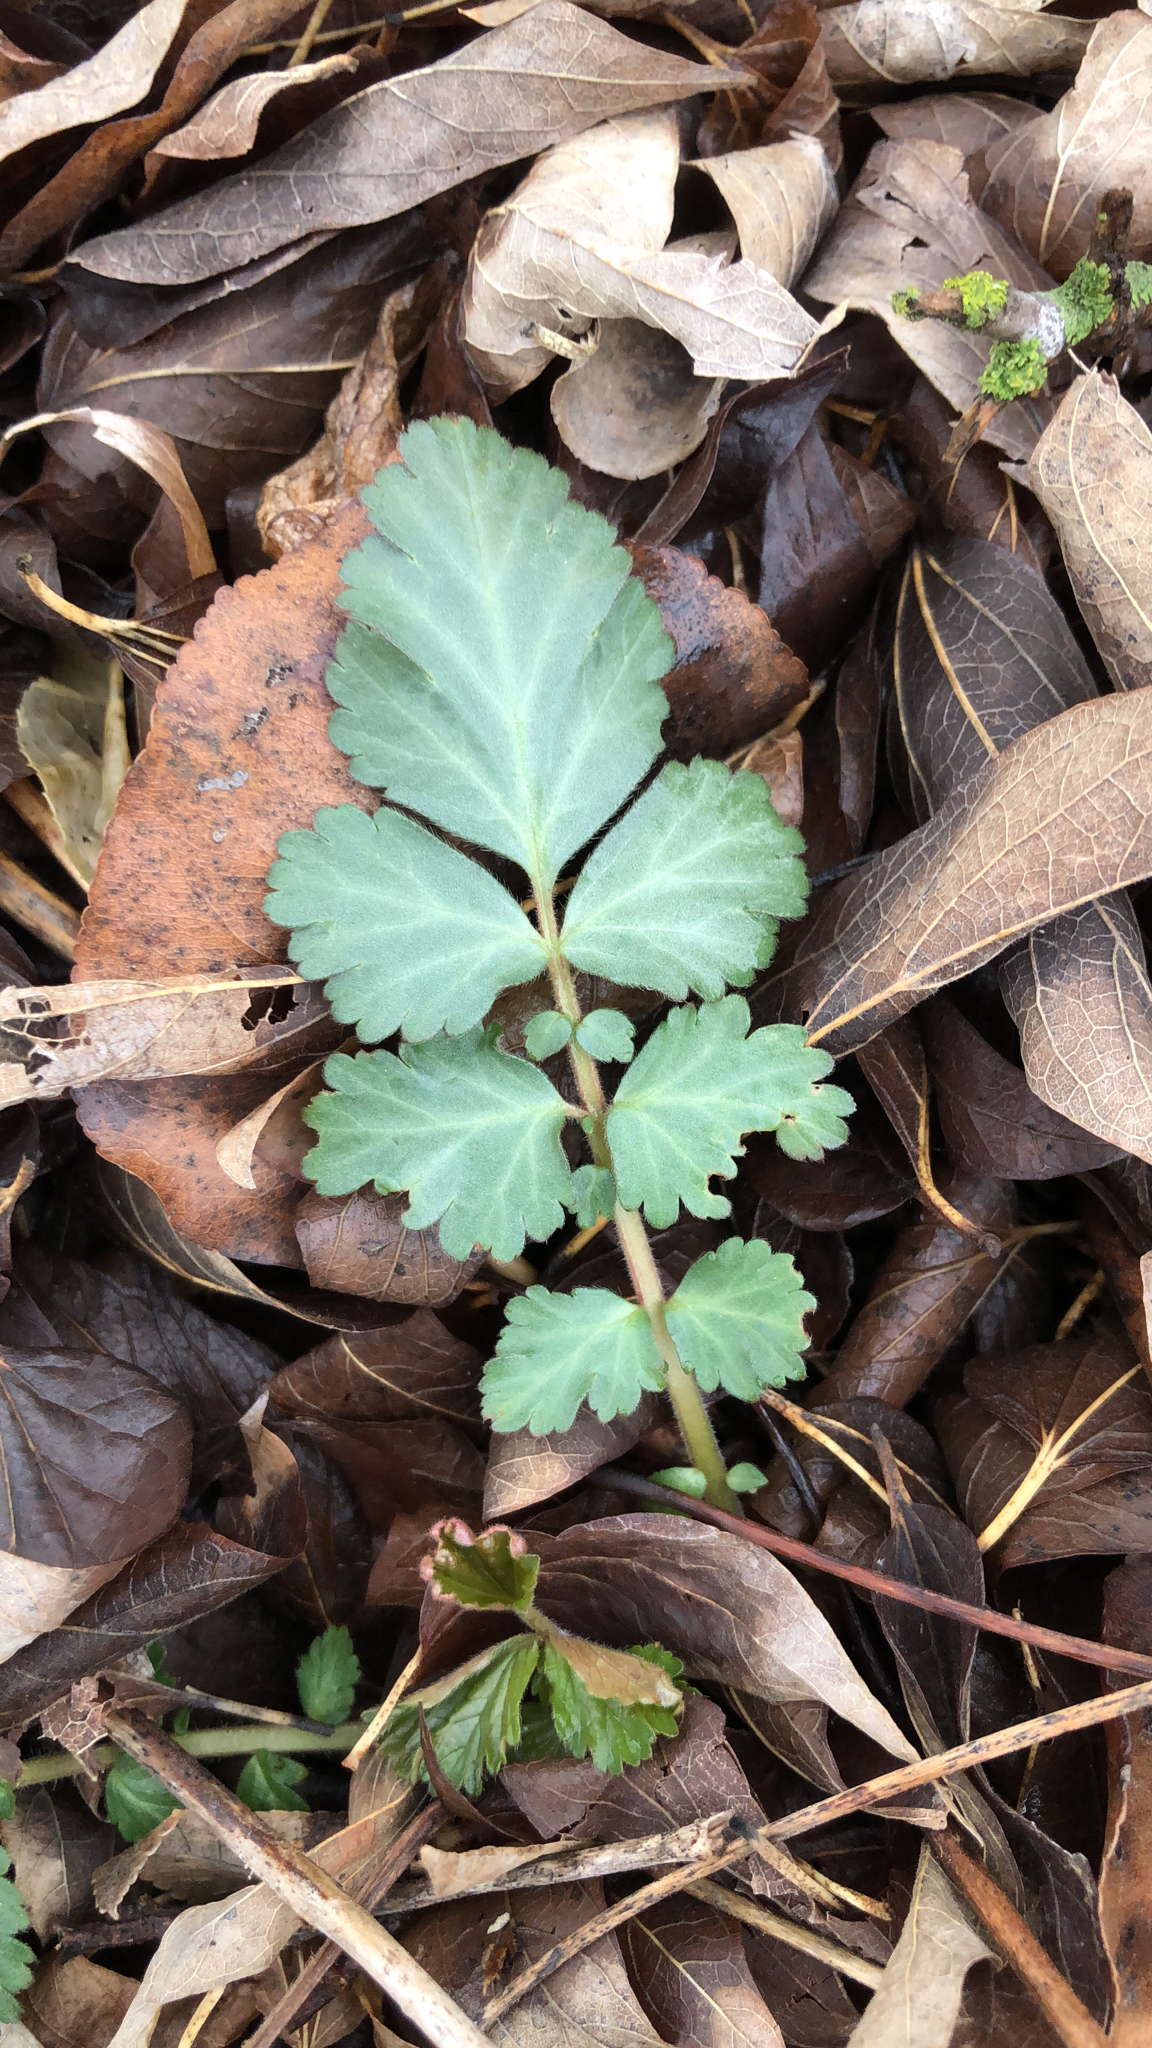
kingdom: Plantae
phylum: Tracheophyta
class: Magnoliopsida
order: Rosales
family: Rosaceae
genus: Geum
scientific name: Geum canadense
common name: White avens
